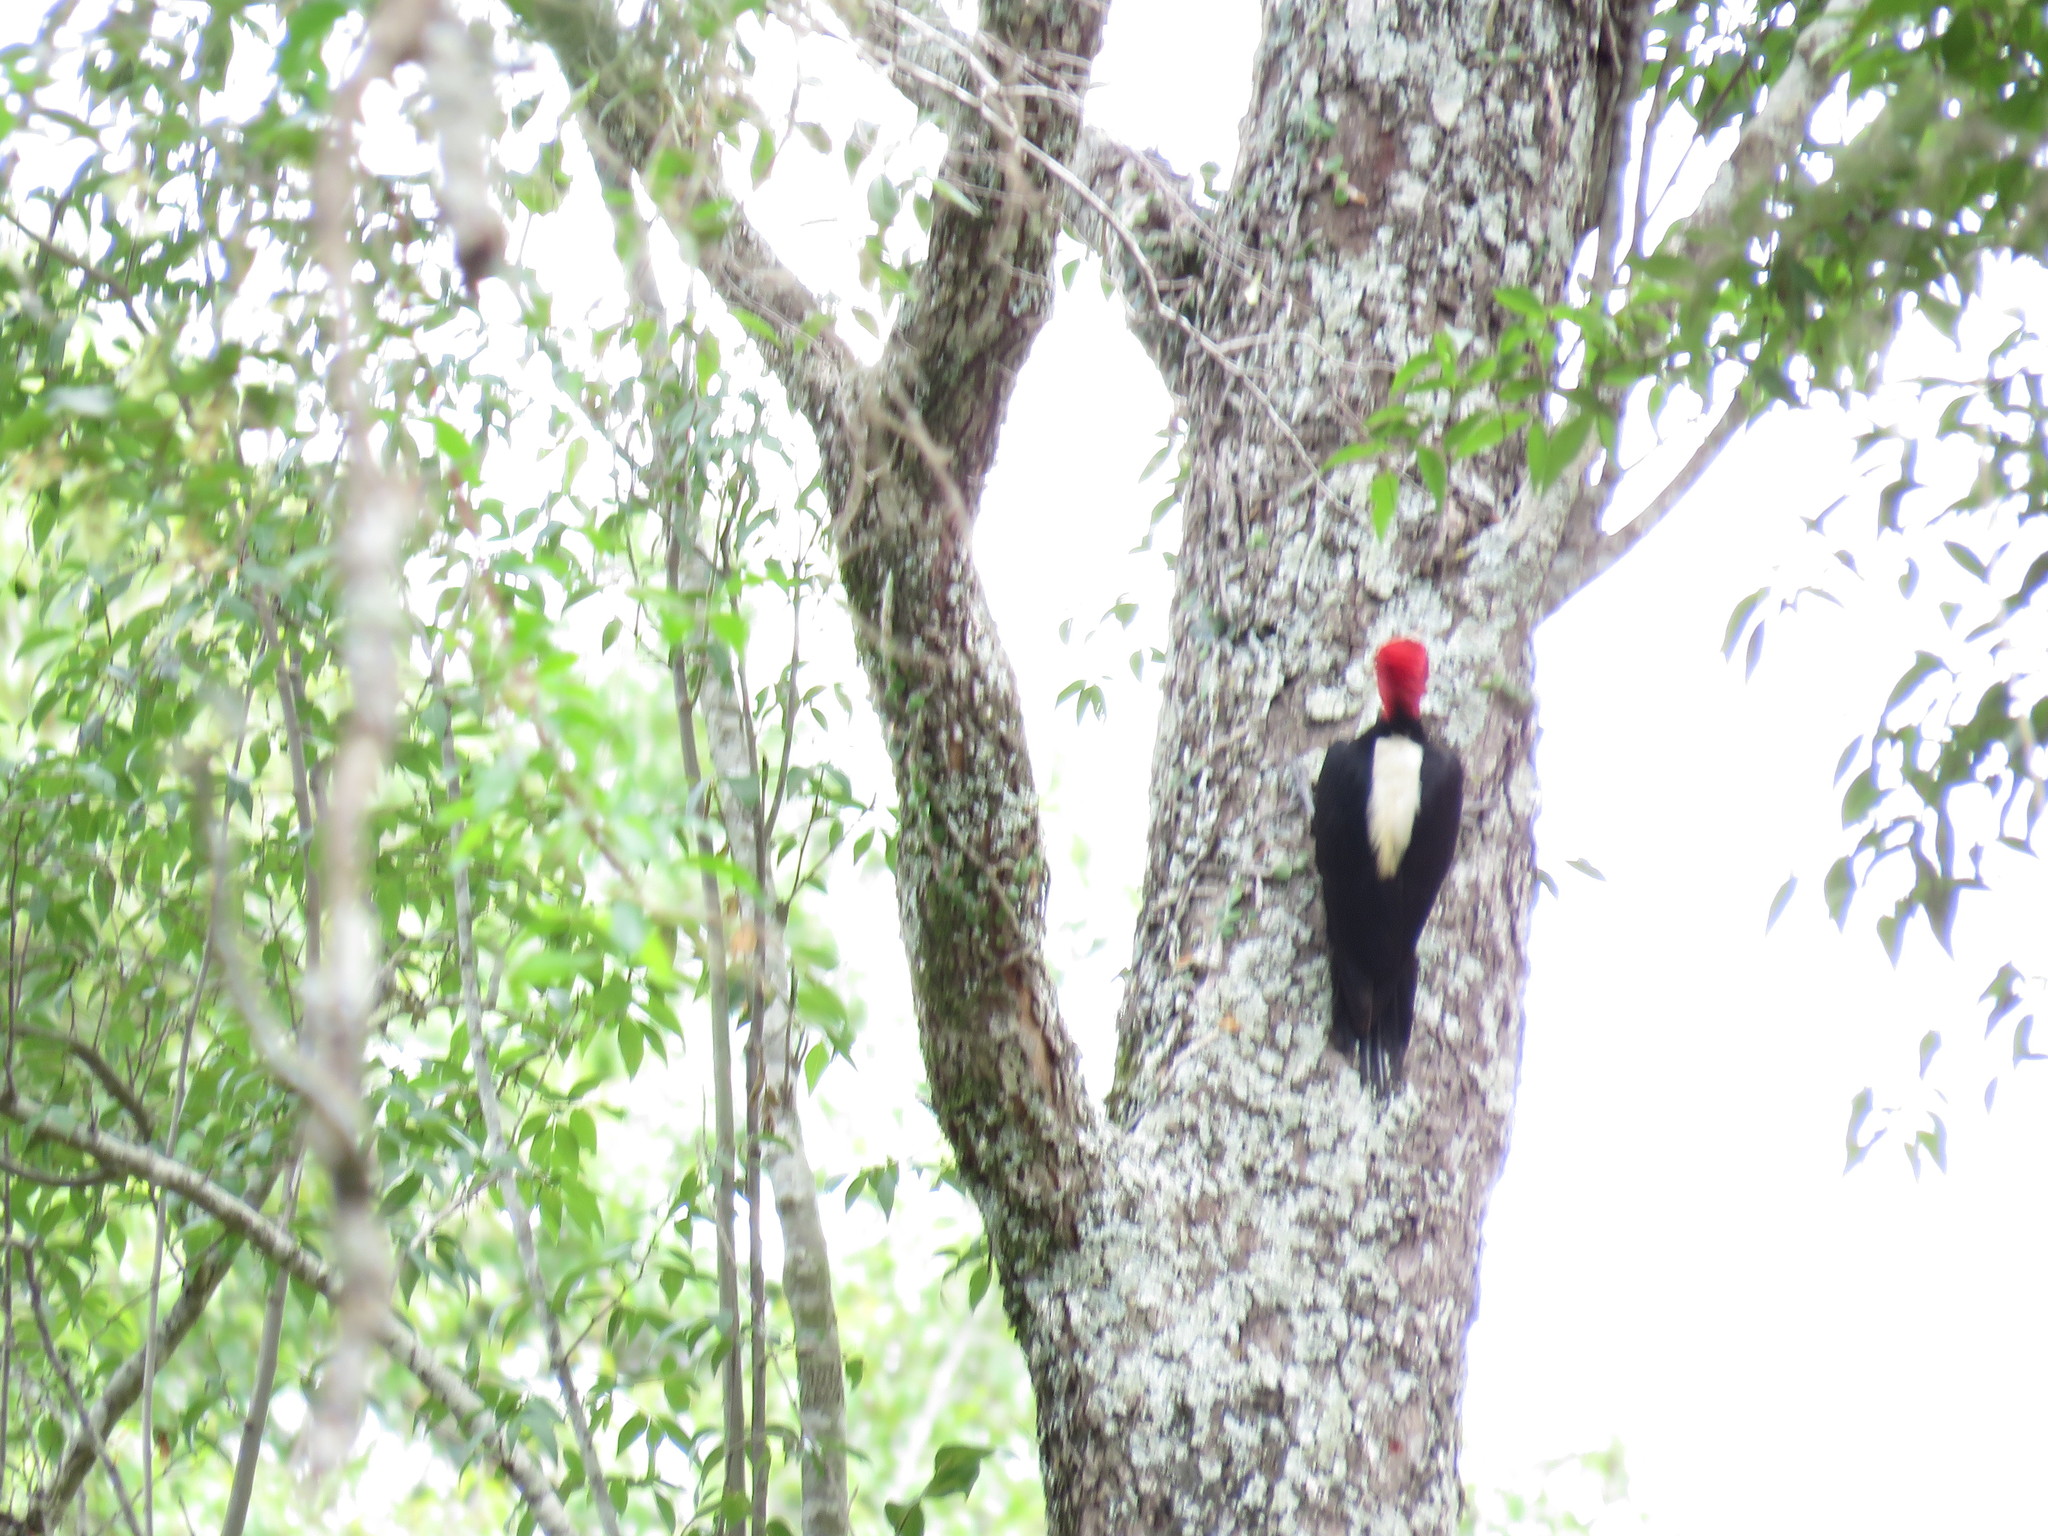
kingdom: Animalia
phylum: Chordata
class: Aves
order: Piciformes
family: Picidae
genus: Campephilus
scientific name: Campephilus leucopogon
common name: Cream-backed woodpecker
